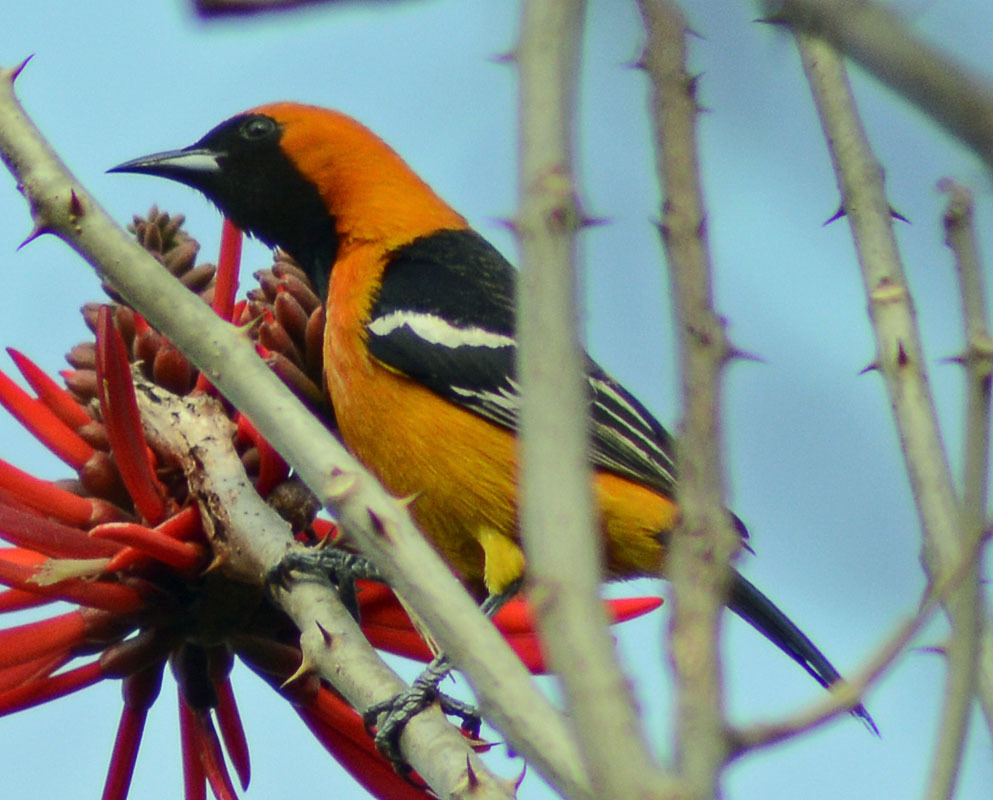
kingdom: Animalia
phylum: Chordata
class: Aves
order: Passeriformes
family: Icteridae
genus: Icterus
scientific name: Icterus cucullatus
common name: Hooded oriole
